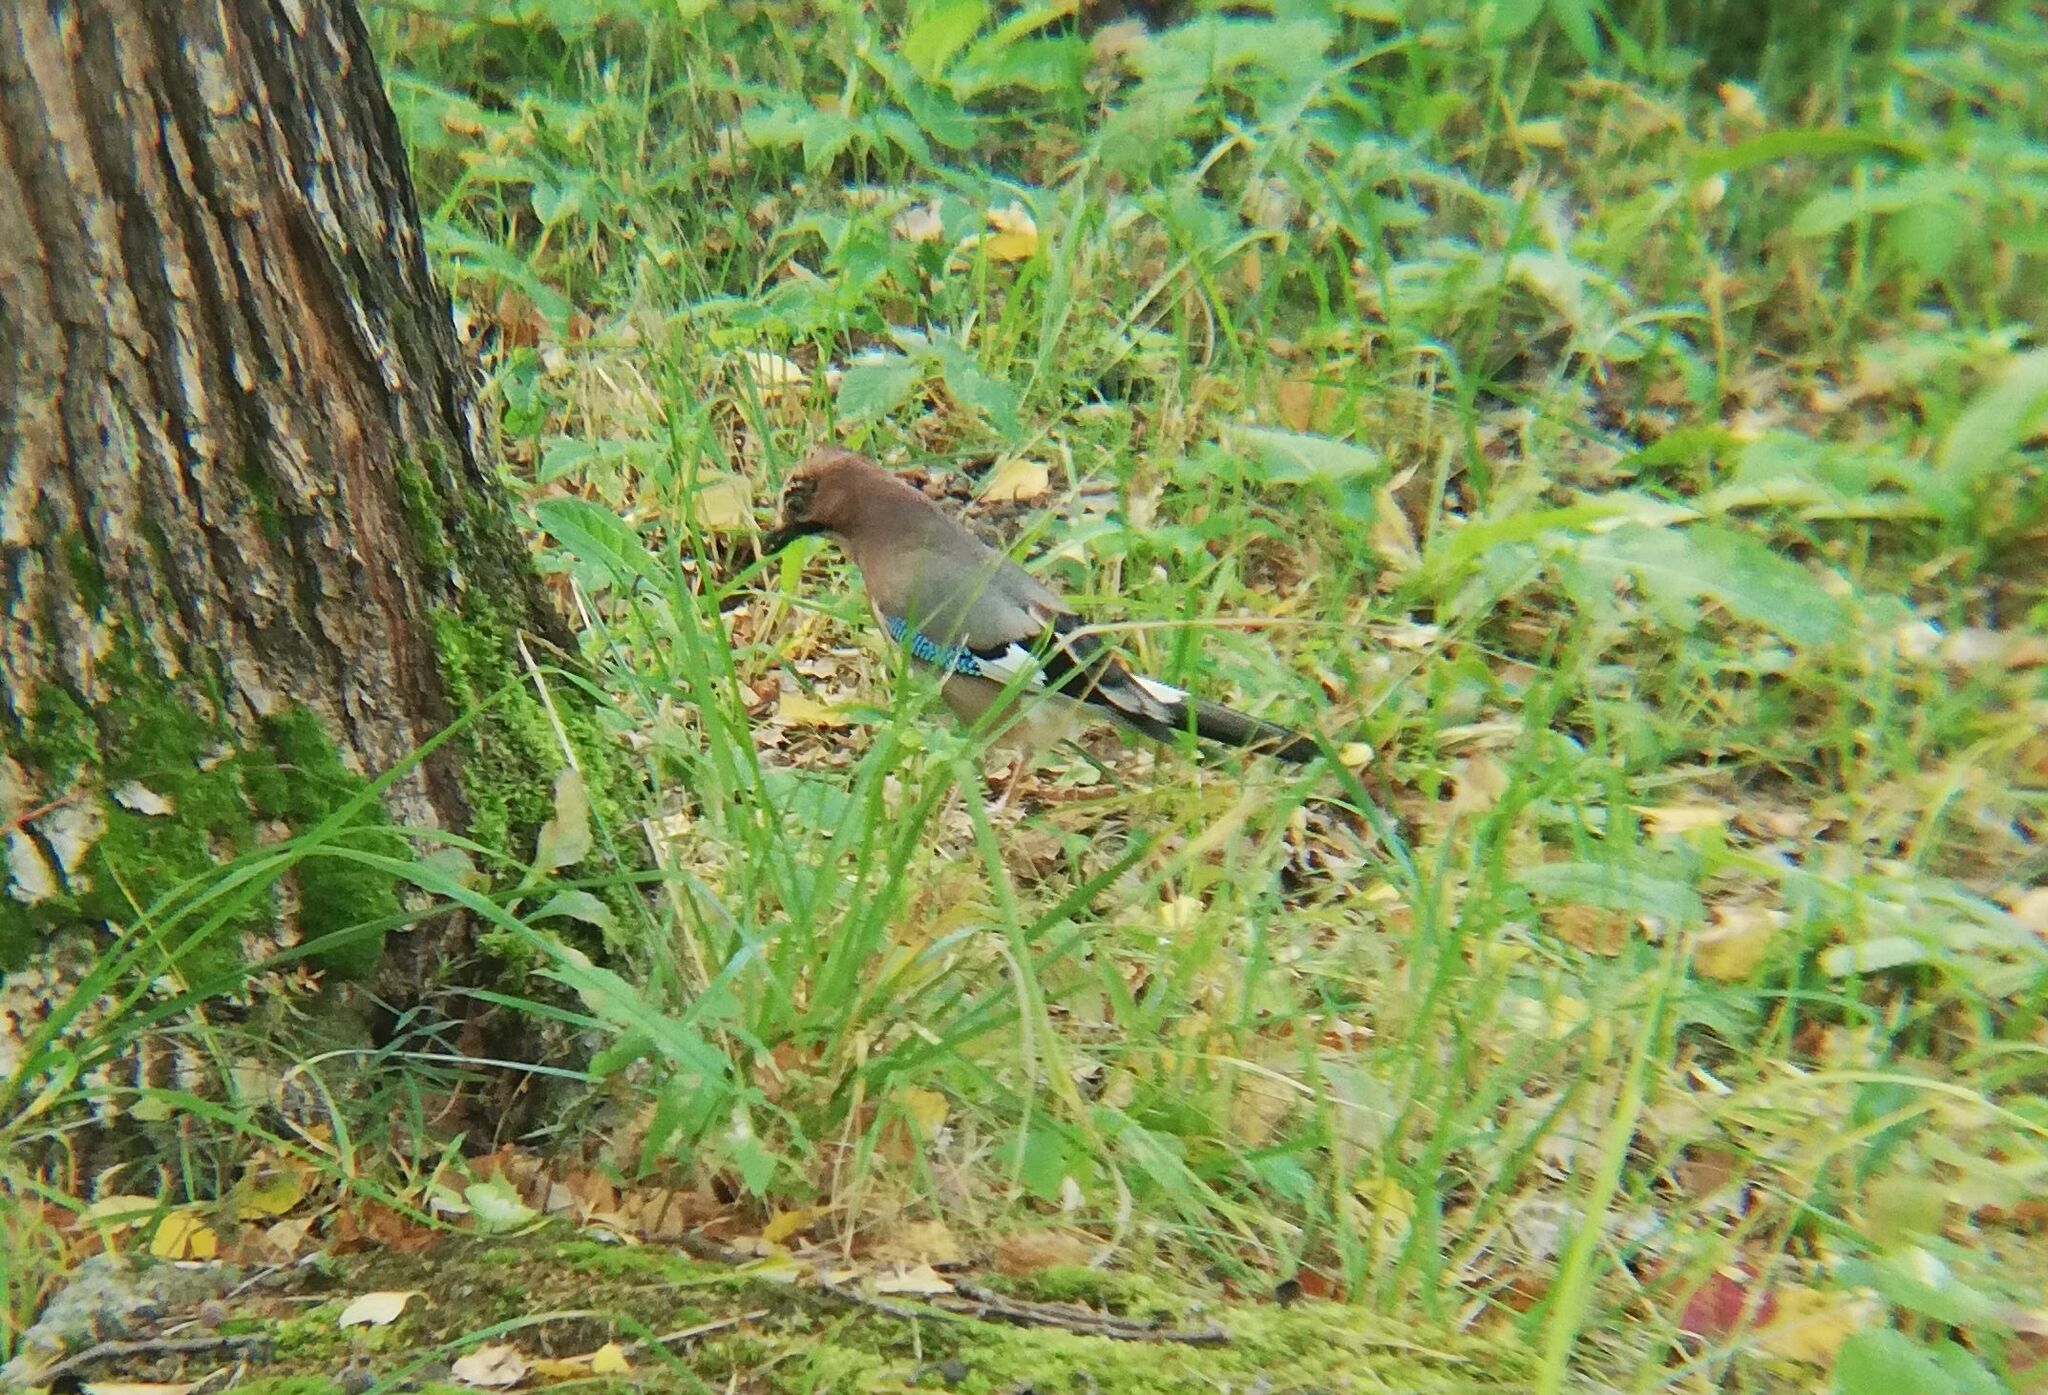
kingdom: Animalia
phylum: Chordata
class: Aves
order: Passeriformes
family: Corvidae
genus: Garrulus
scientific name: Garrulus glandarius
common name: Eurasian jay
